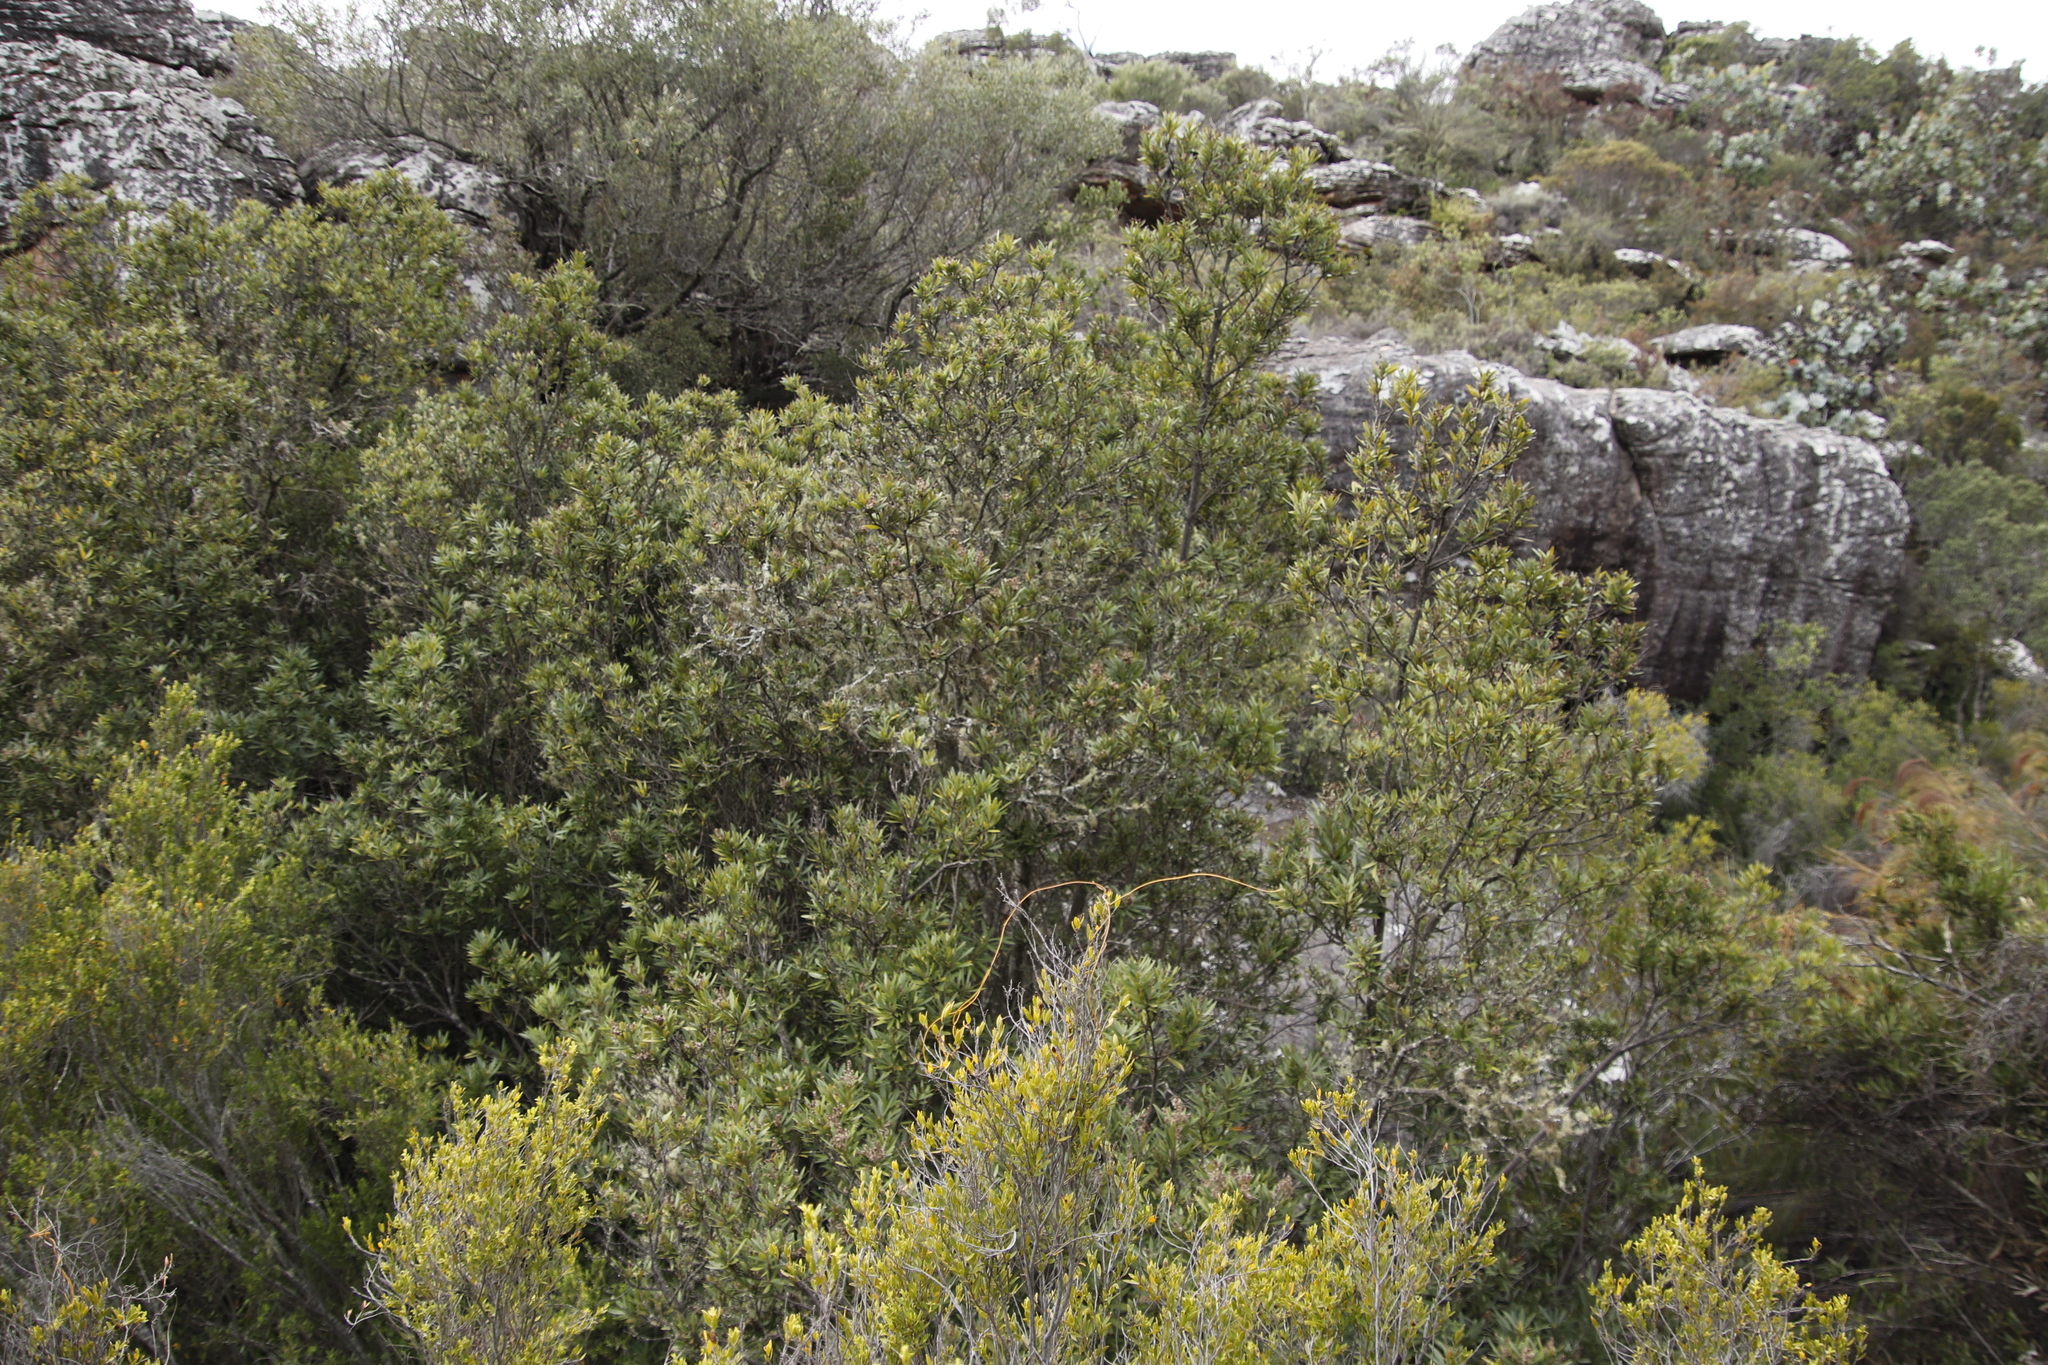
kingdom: Plantae
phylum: Tracheophyta
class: Magnoliopsida
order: Asterales
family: Asteraceae
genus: Brachylaena
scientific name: Brachylaena neriifolia
